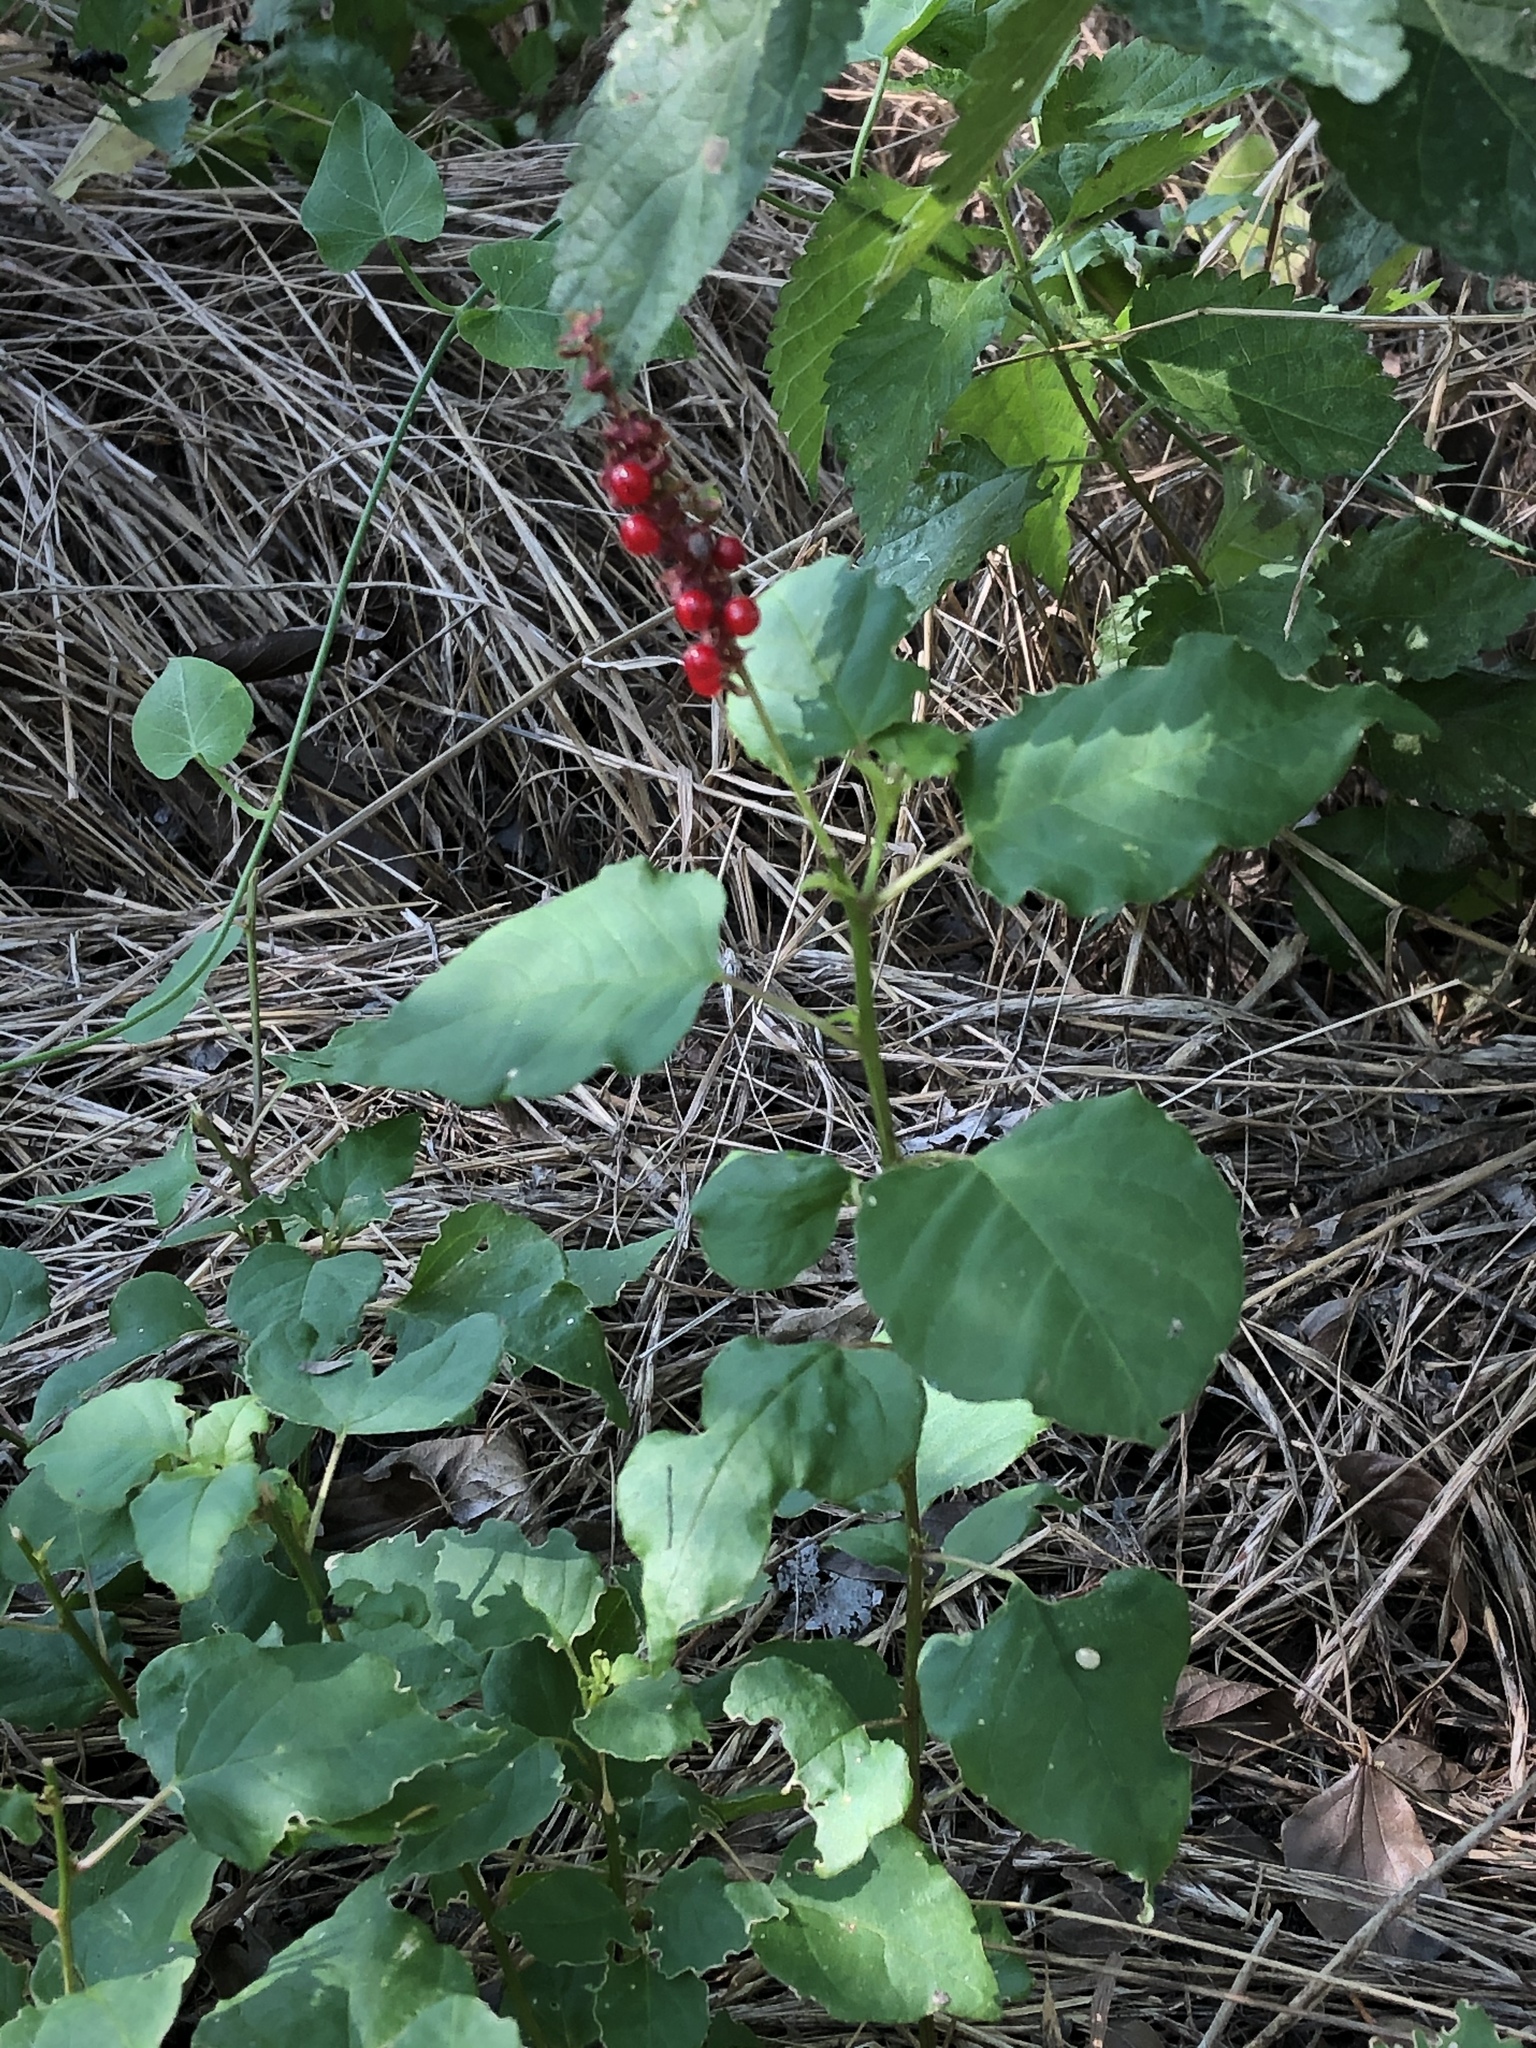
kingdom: Plantae
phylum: Tracheophyta
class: Magnoliopsida
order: Caryophyllales
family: Phytolaccaceae
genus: Rivina
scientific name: Rivina humilis
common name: Rougeplant
